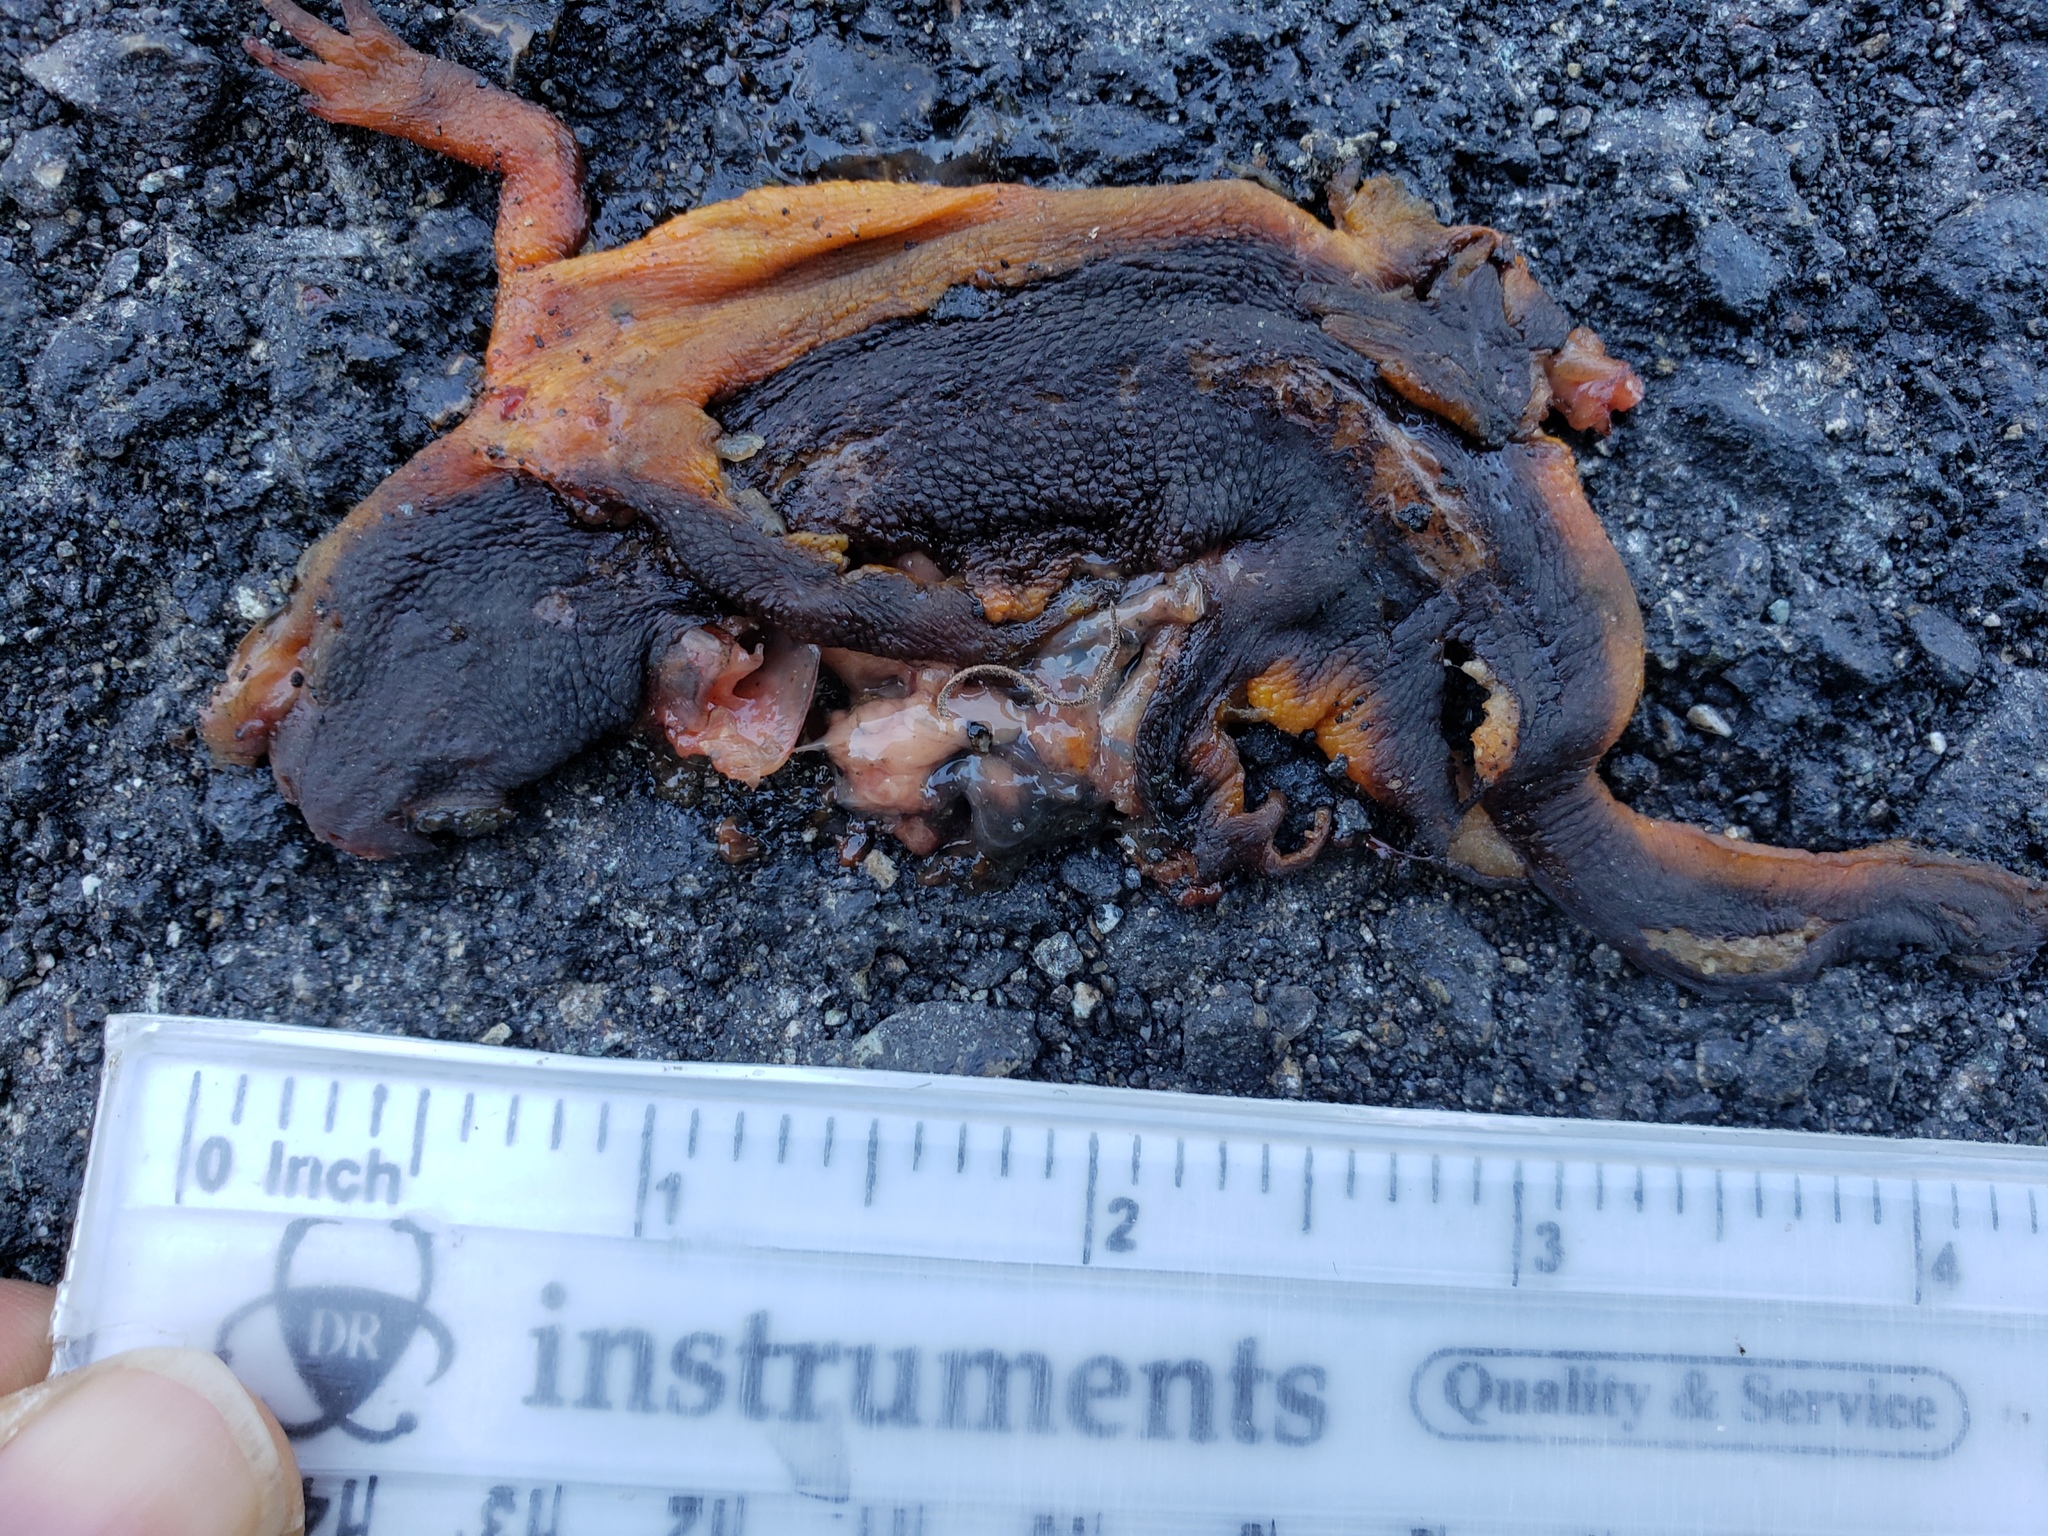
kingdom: Animalia
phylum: Chordata
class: Amphibia
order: Caudata
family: Salamandridae
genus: Taricha
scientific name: Taricha
